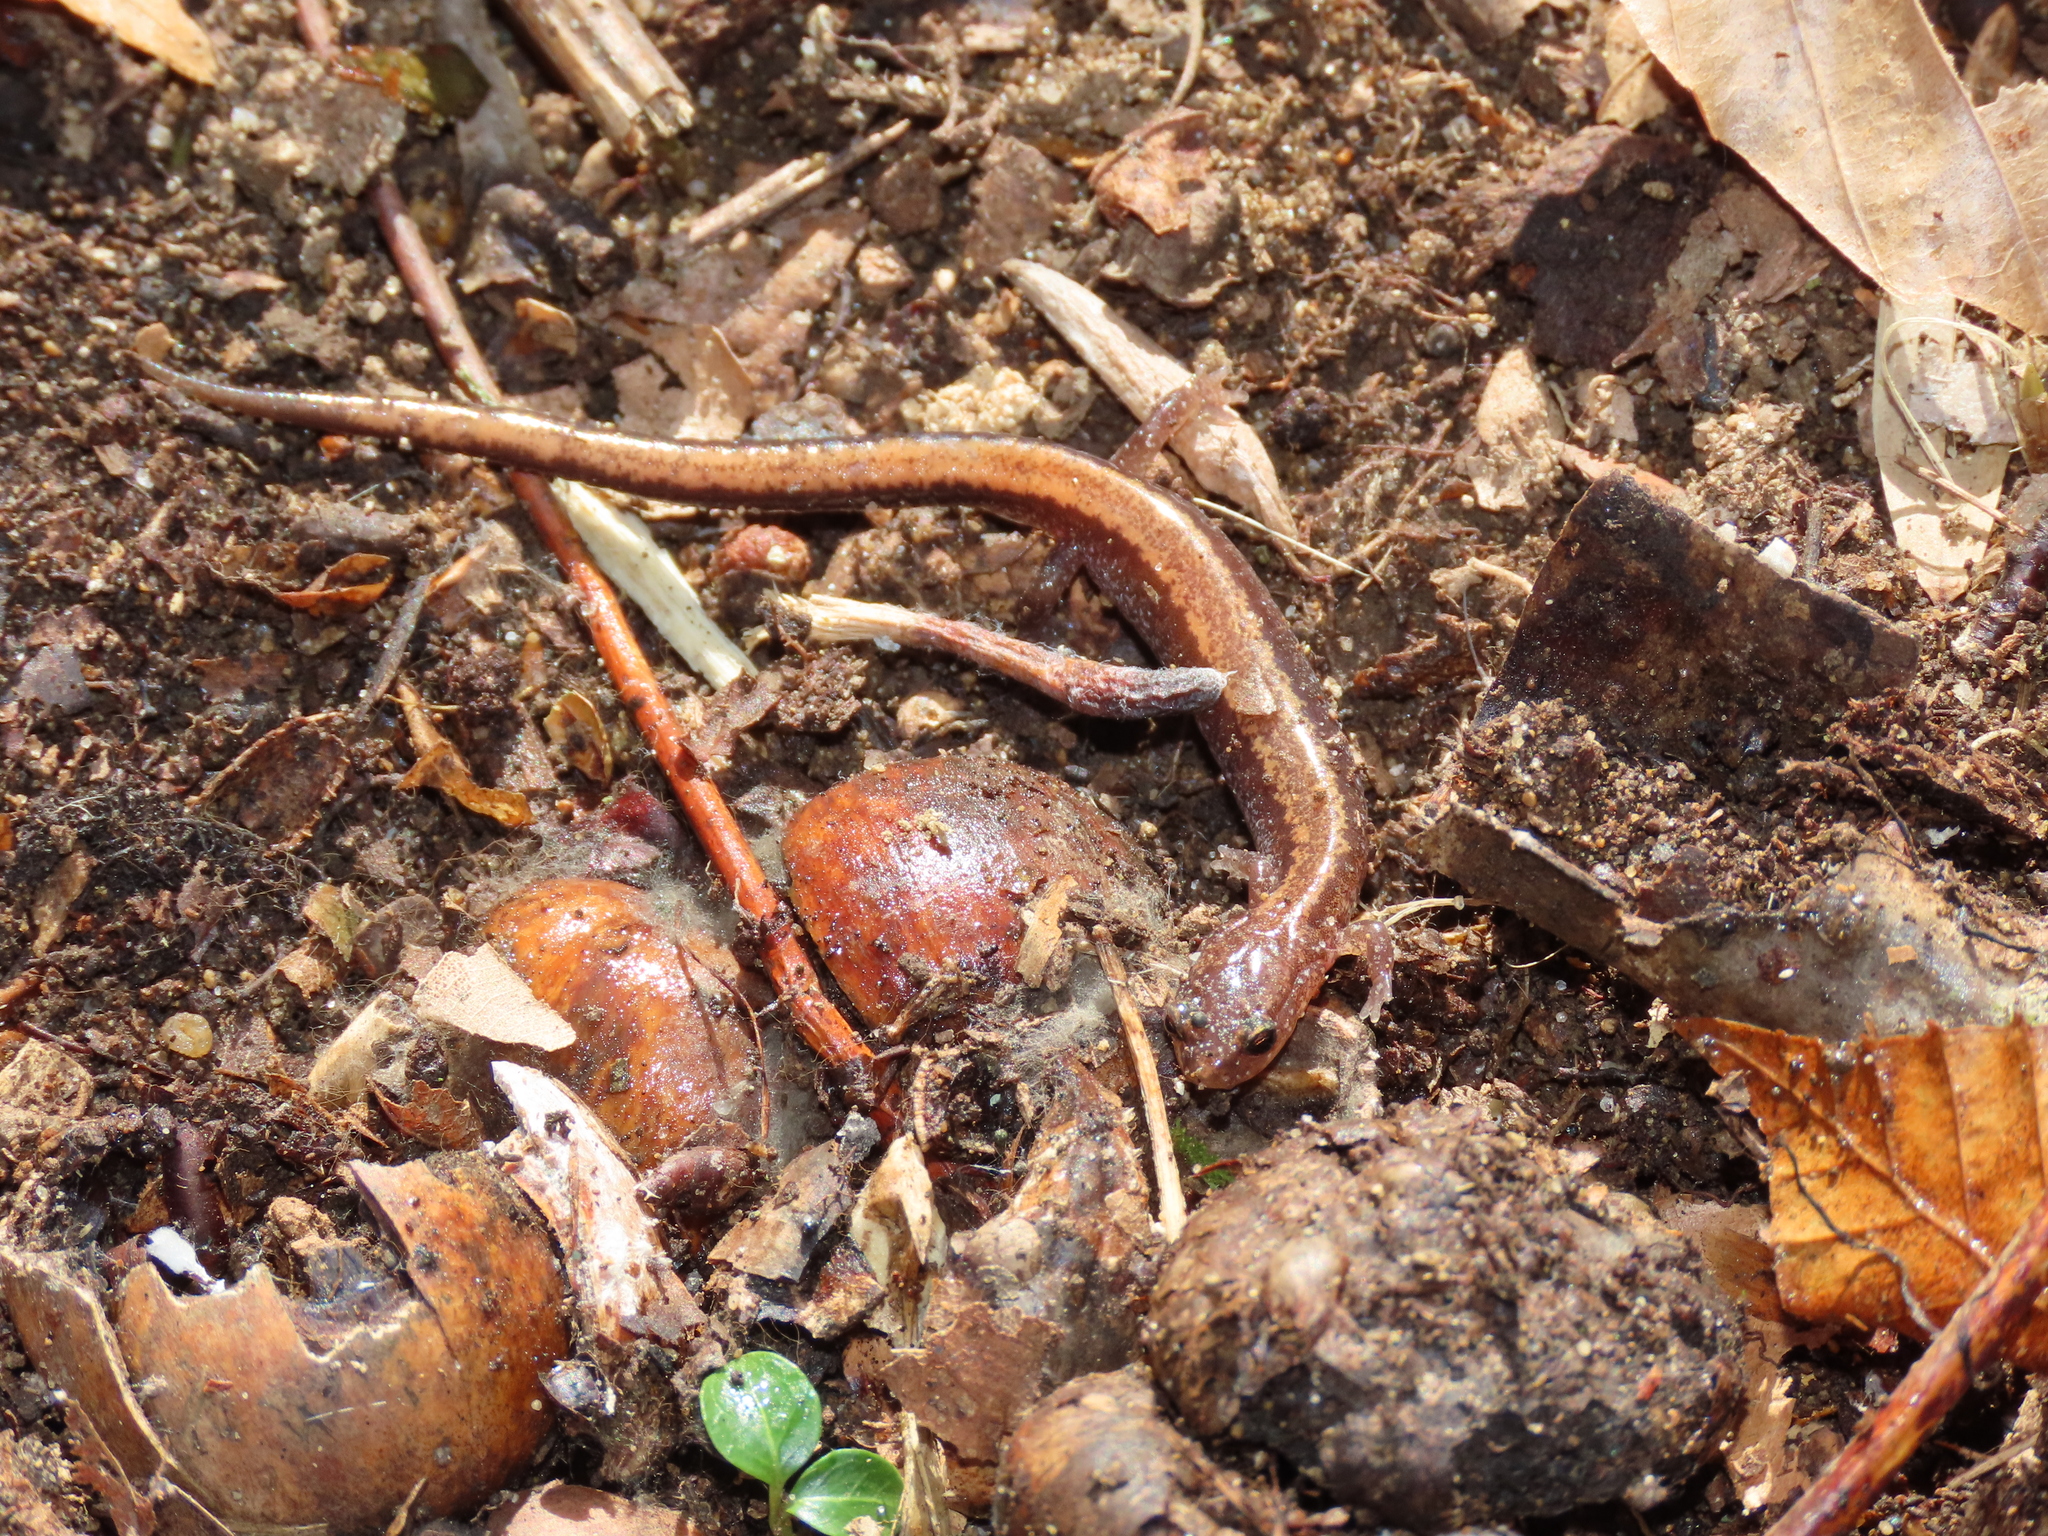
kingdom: Animalia
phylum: Chordata
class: Amphibia
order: Caudata
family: Plethodontidae
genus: Plethodon
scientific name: Plethodon cinereus
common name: Redback salamander
